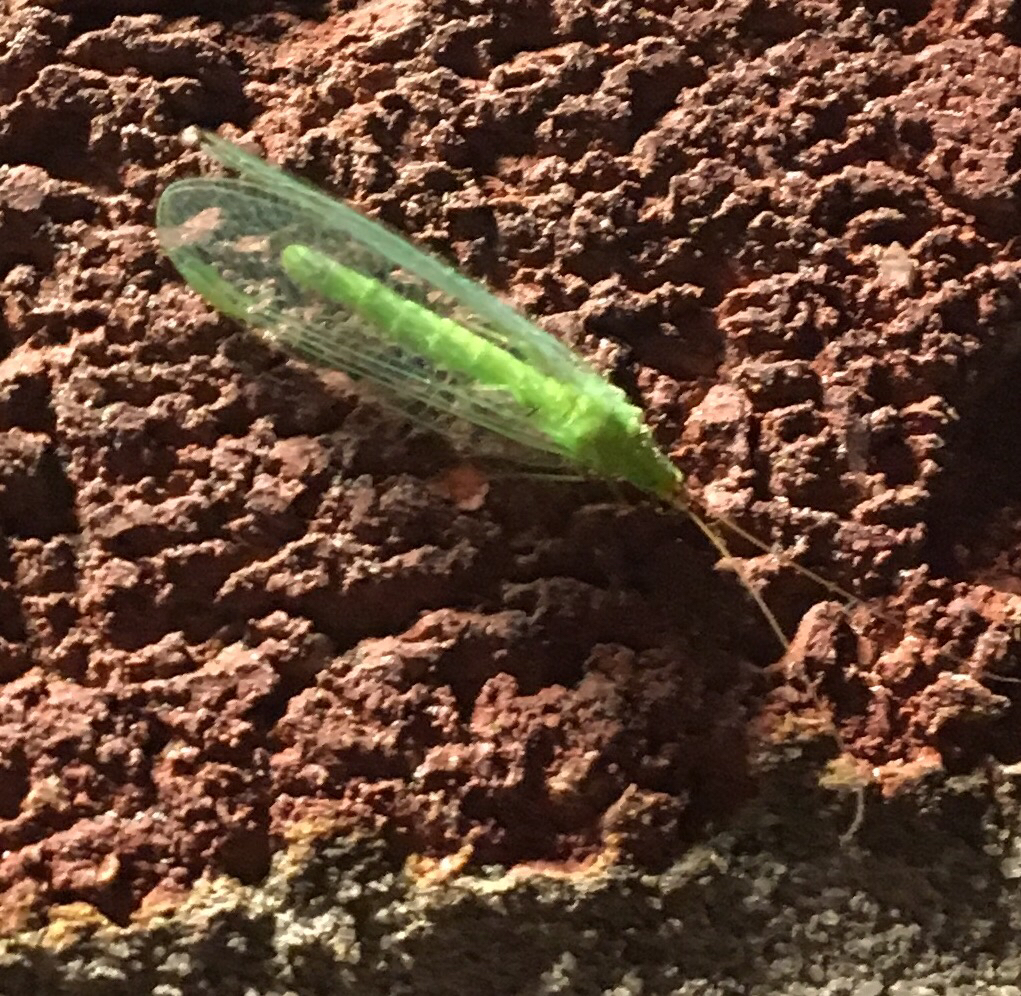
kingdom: Animalia
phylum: Arthropoda
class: Insecta
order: Neuroptera
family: Chrysopidae
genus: Chrysopa
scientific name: Chrysopa oculata
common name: Golden-eyed lacewing
